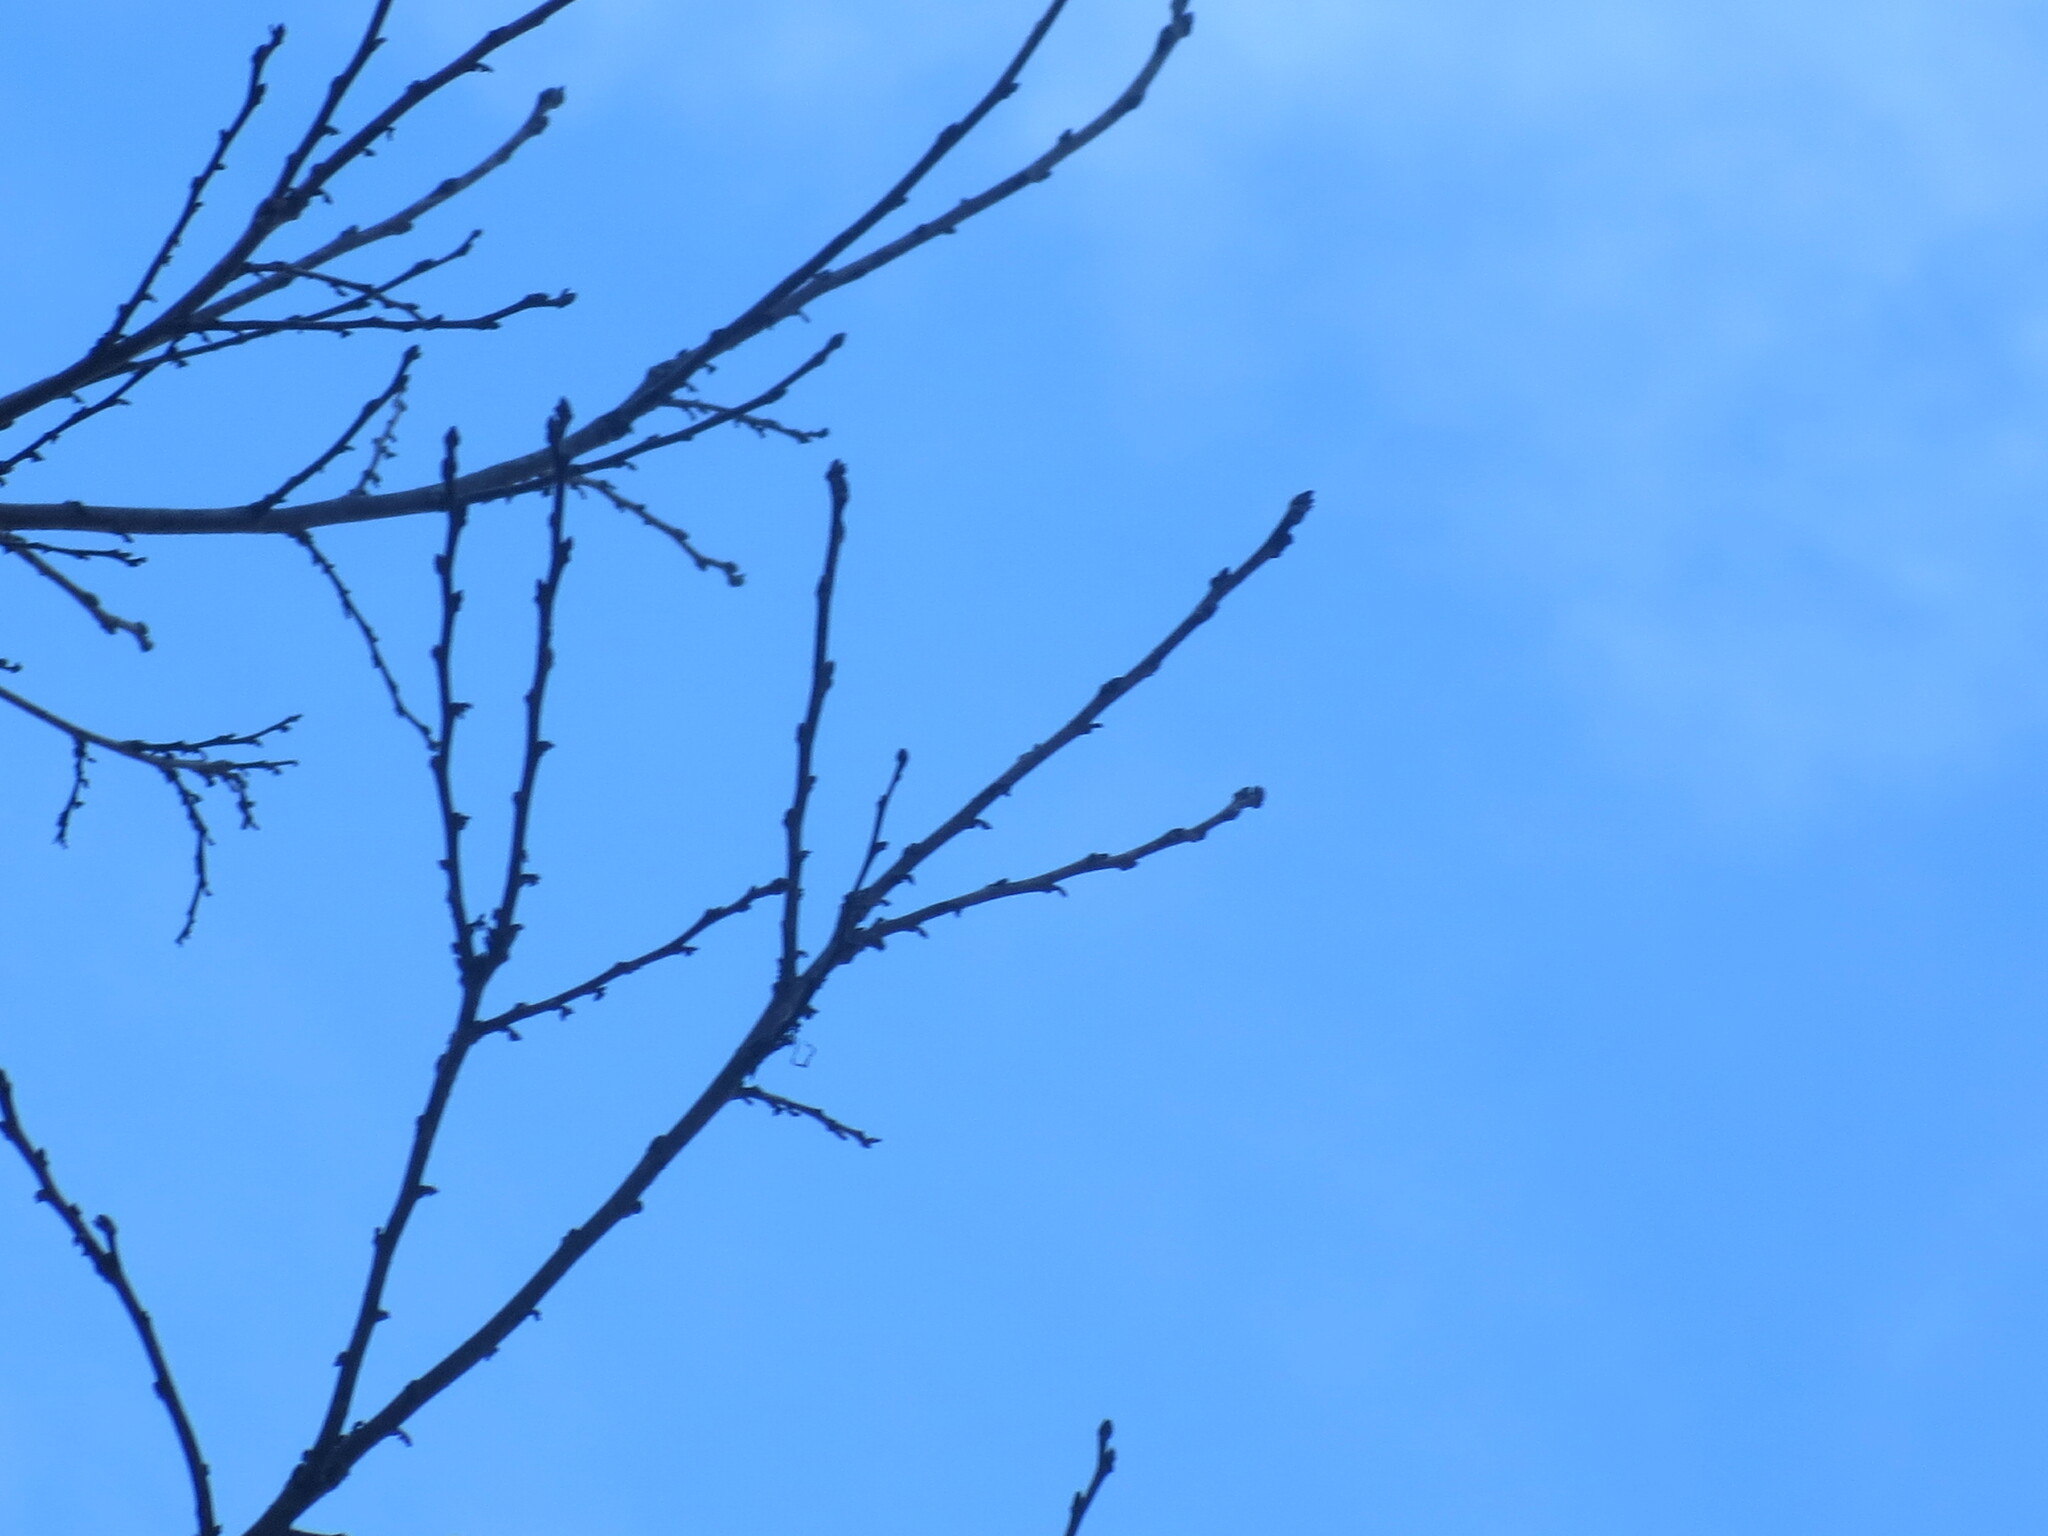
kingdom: Plantae
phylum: Tracheophyta
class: Magnoliopsida
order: Ericales
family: Ebenaceae
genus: Diospyros
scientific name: Diospyros virginiana
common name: Persimmon
